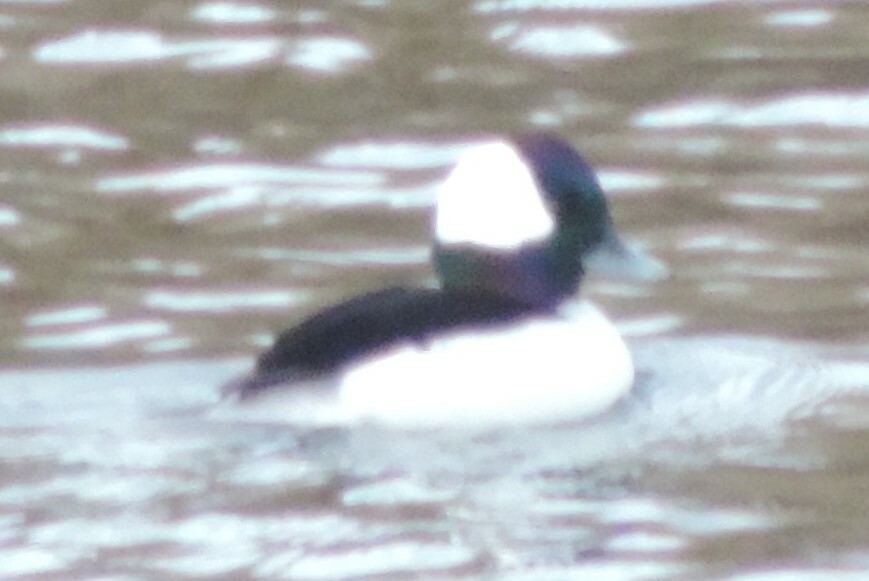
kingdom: Animalia
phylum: Chordata
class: Aves
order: Anseriformes
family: Anatidae
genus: Bucephala
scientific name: Bucephala albeola
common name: Bufflehead
